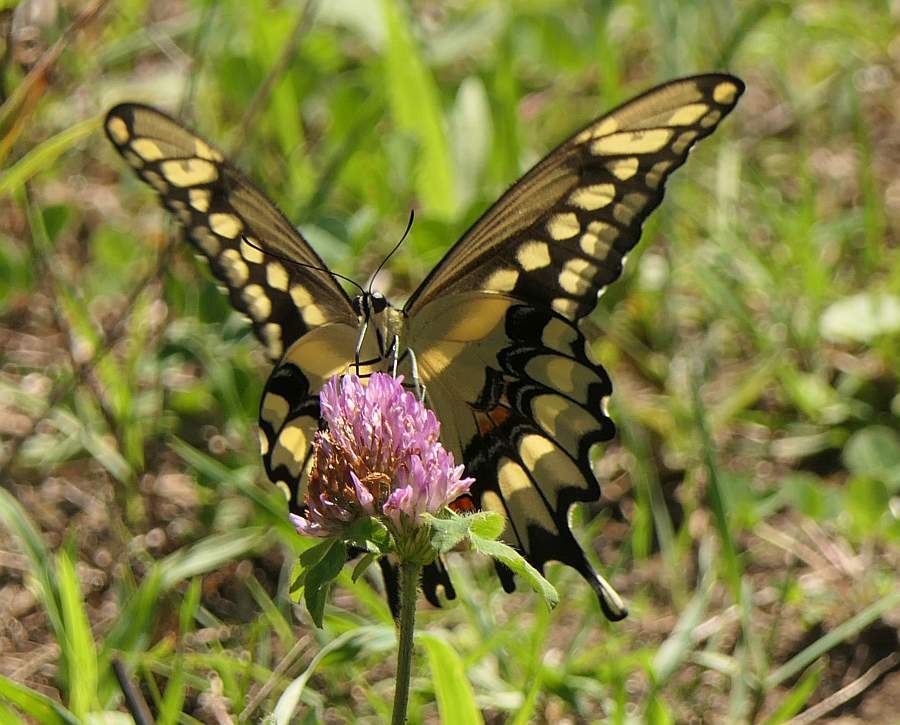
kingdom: Animalia
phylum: Arthropoda
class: Insecta
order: Lepidoptera
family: Papilionidae
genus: Papilio
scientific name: Papilio cresphontes
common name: Giant swallowtail
